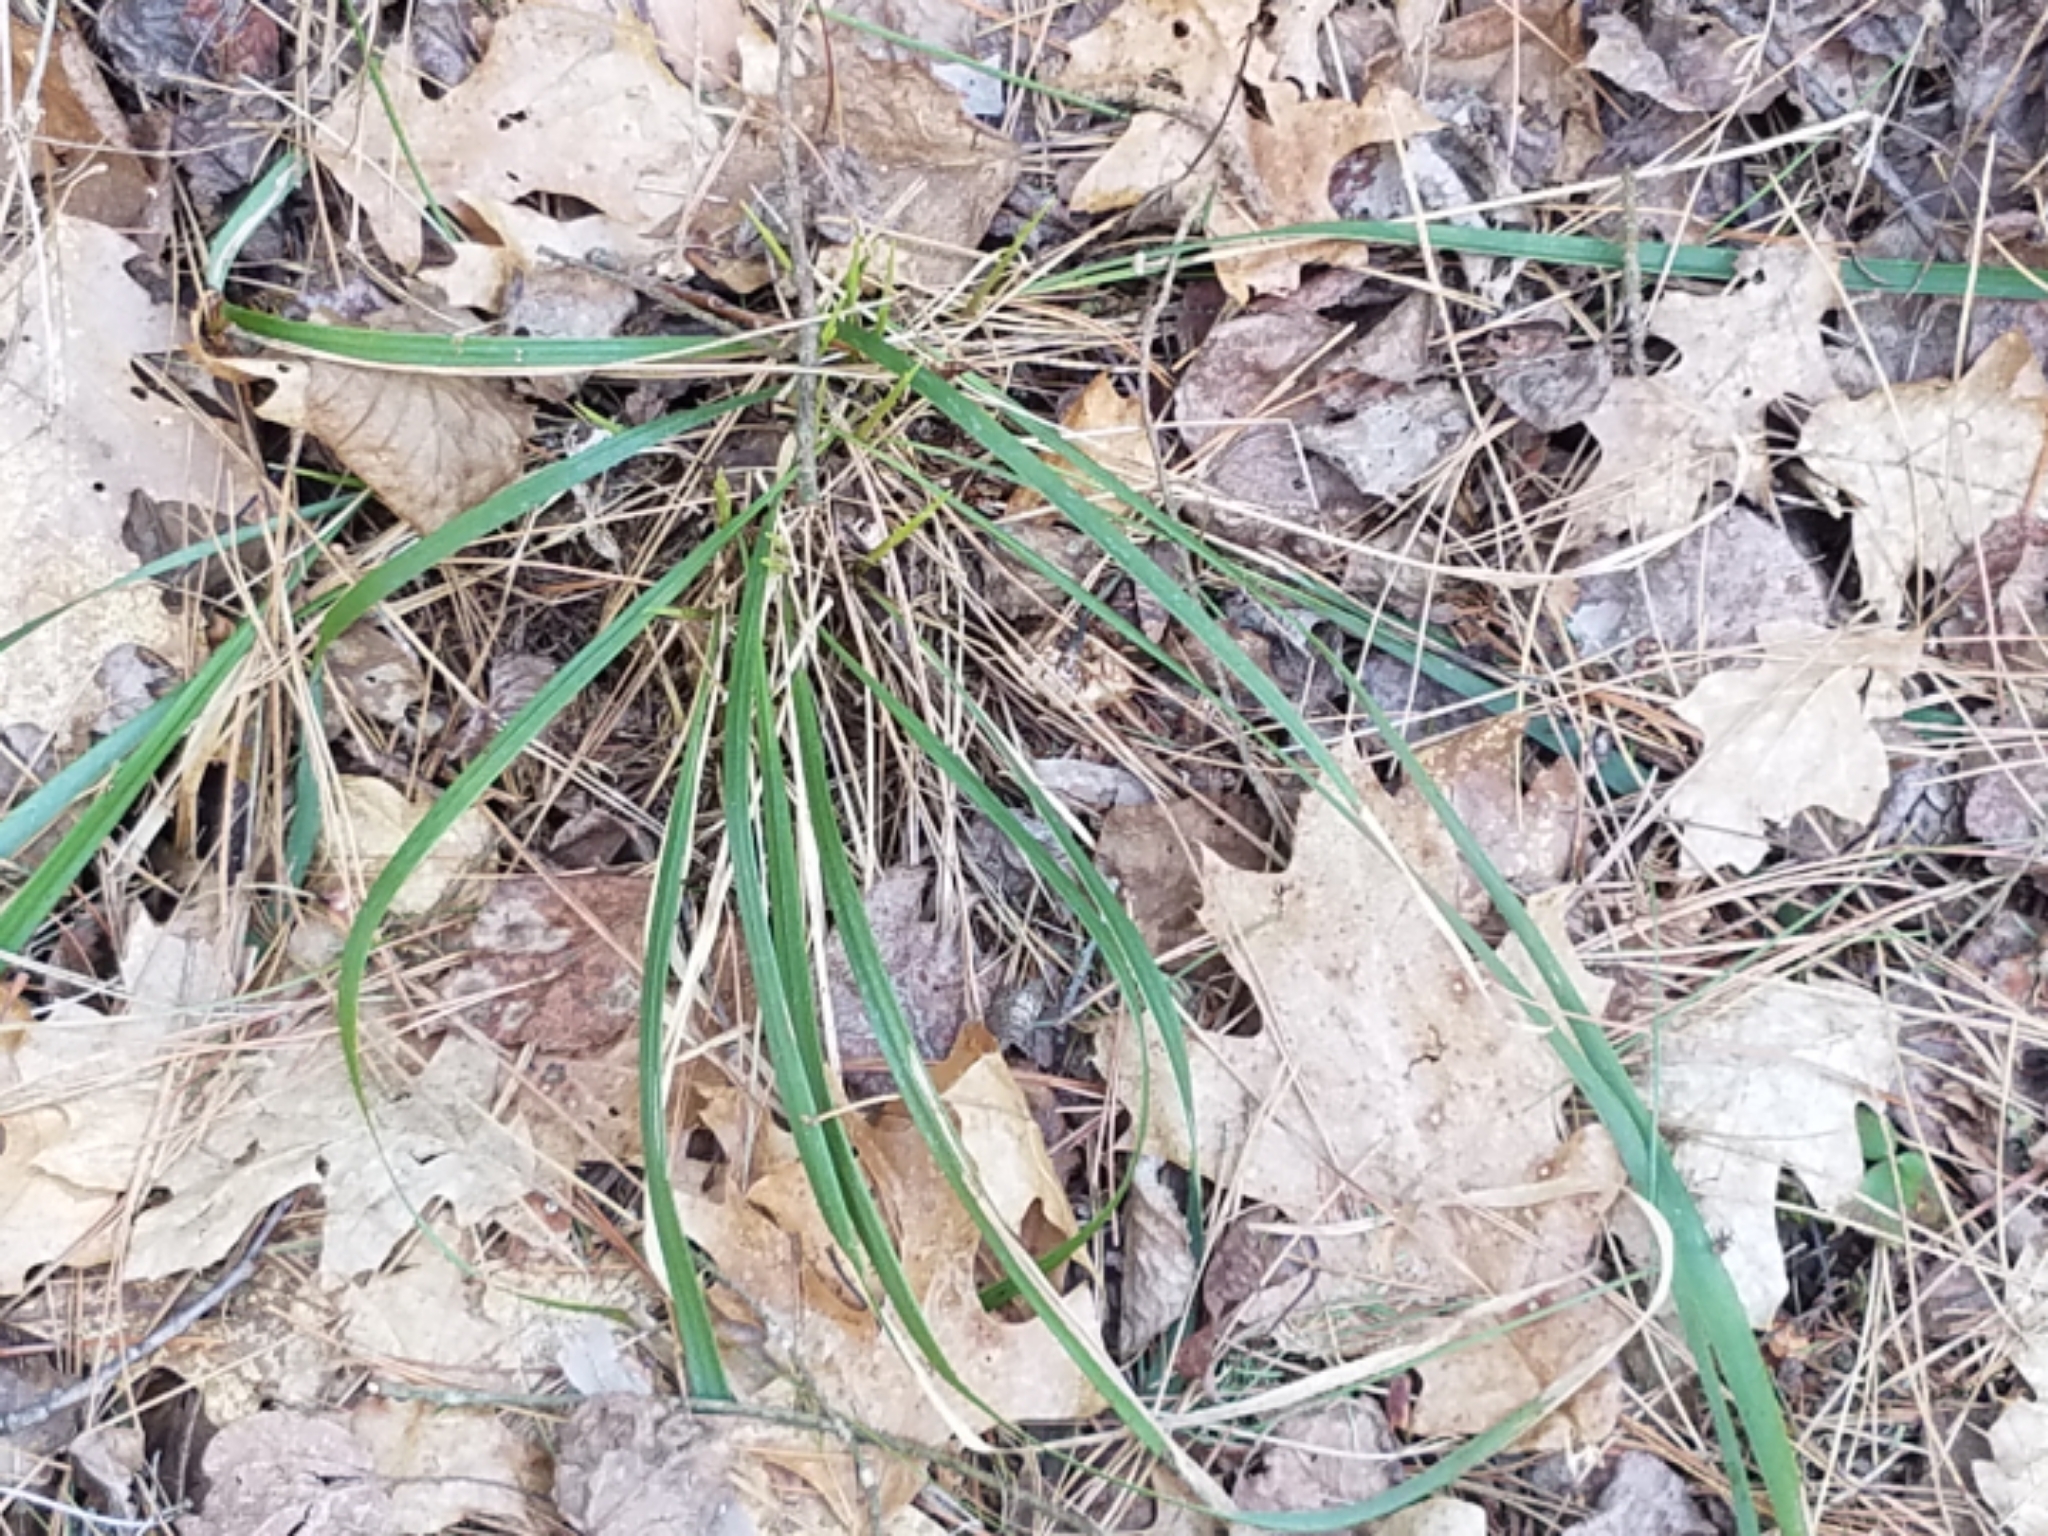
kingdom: Plantae
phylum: Tracheophyta
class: Liliopsida
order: Poales
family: Poaceae
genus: Oryzopsis
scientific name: Oryzopsis asperifolia
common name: Rough-leaved mountain rice
